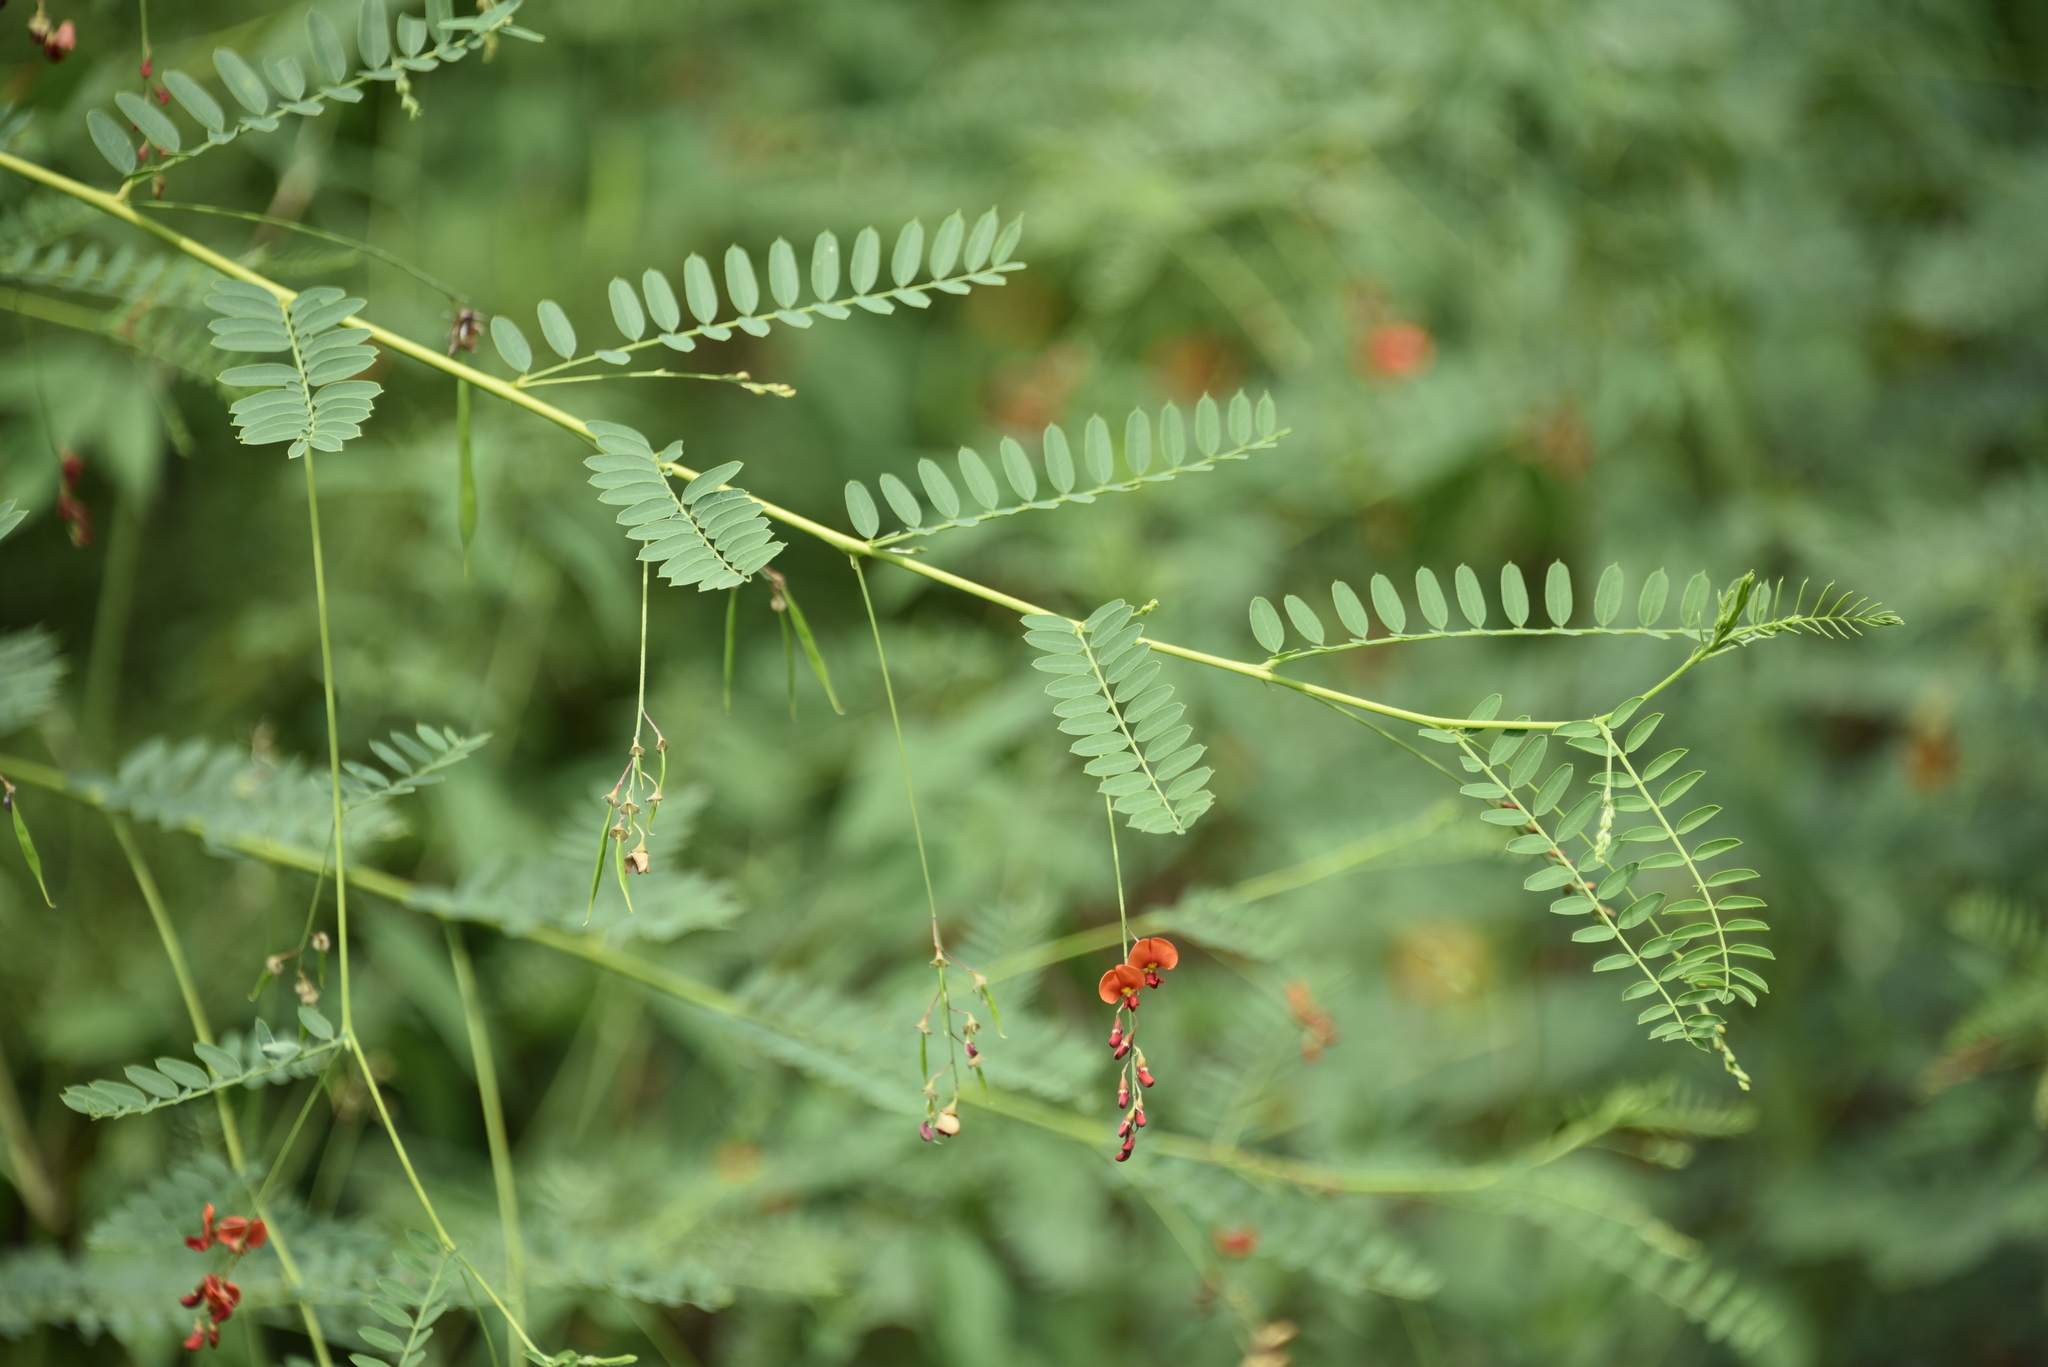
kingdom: Plantae
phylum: Tracheophyta
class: Magnoliopsida
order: Fabales
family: Fabaceae
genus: Sesbania
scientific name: Sesbania vesicaria
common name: Bagpod
